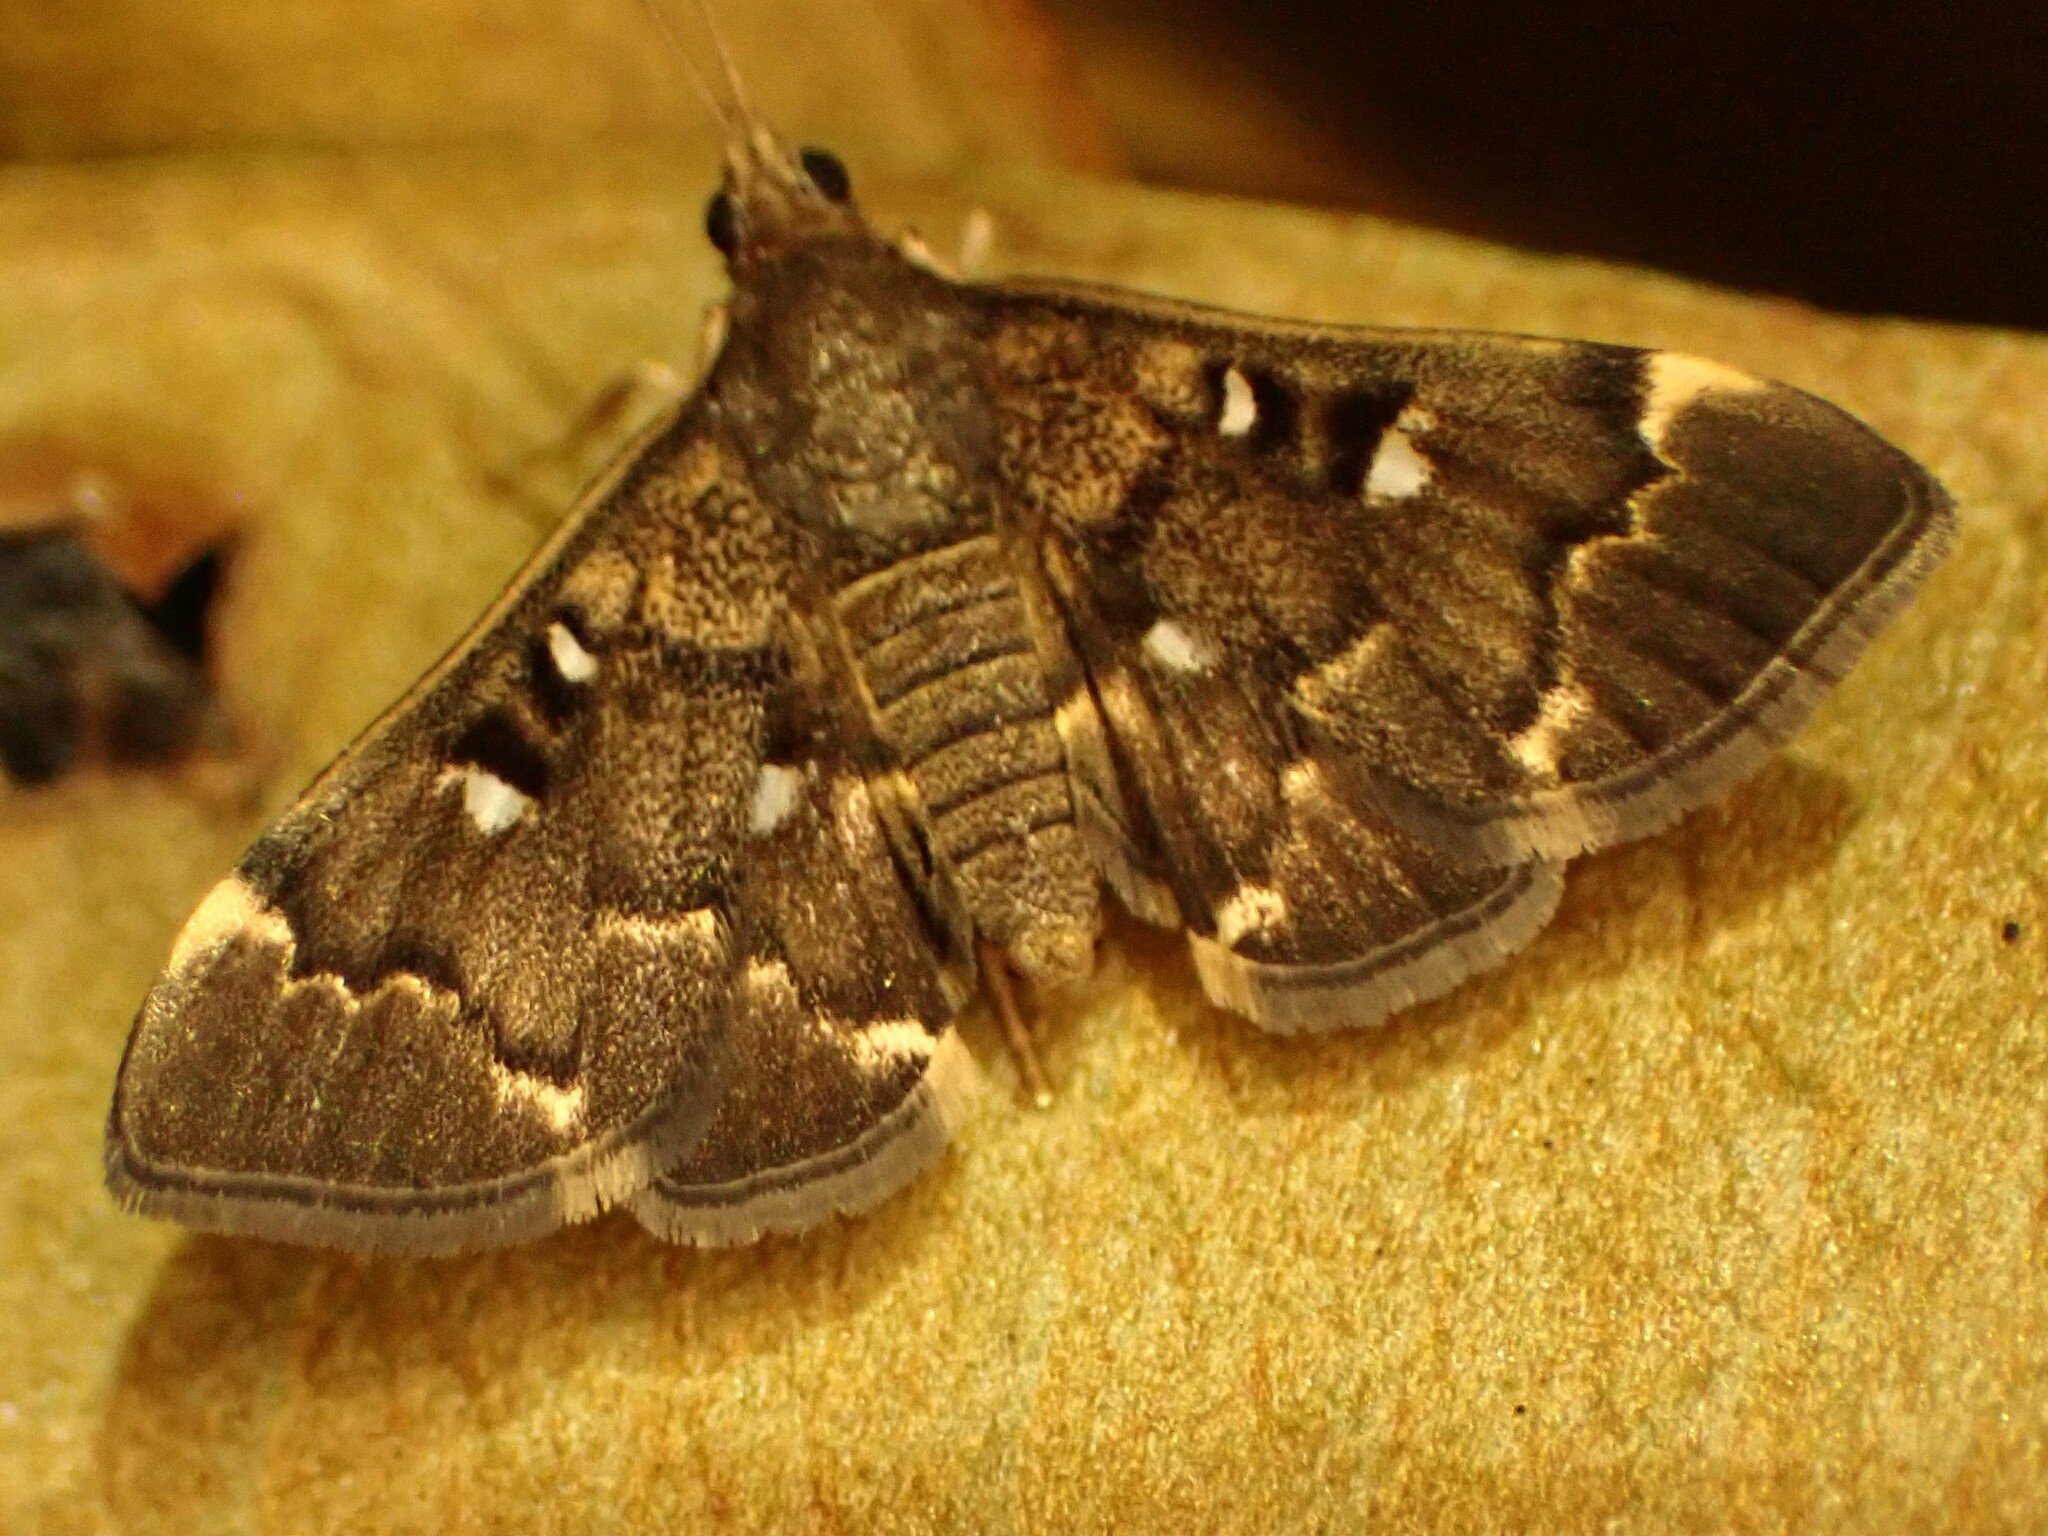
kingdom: Animalia
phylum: Arthropoda
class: Insecta
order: Lepidoptera
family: Crambidae
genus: Piletocera
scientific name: Piletocera fluctualis
